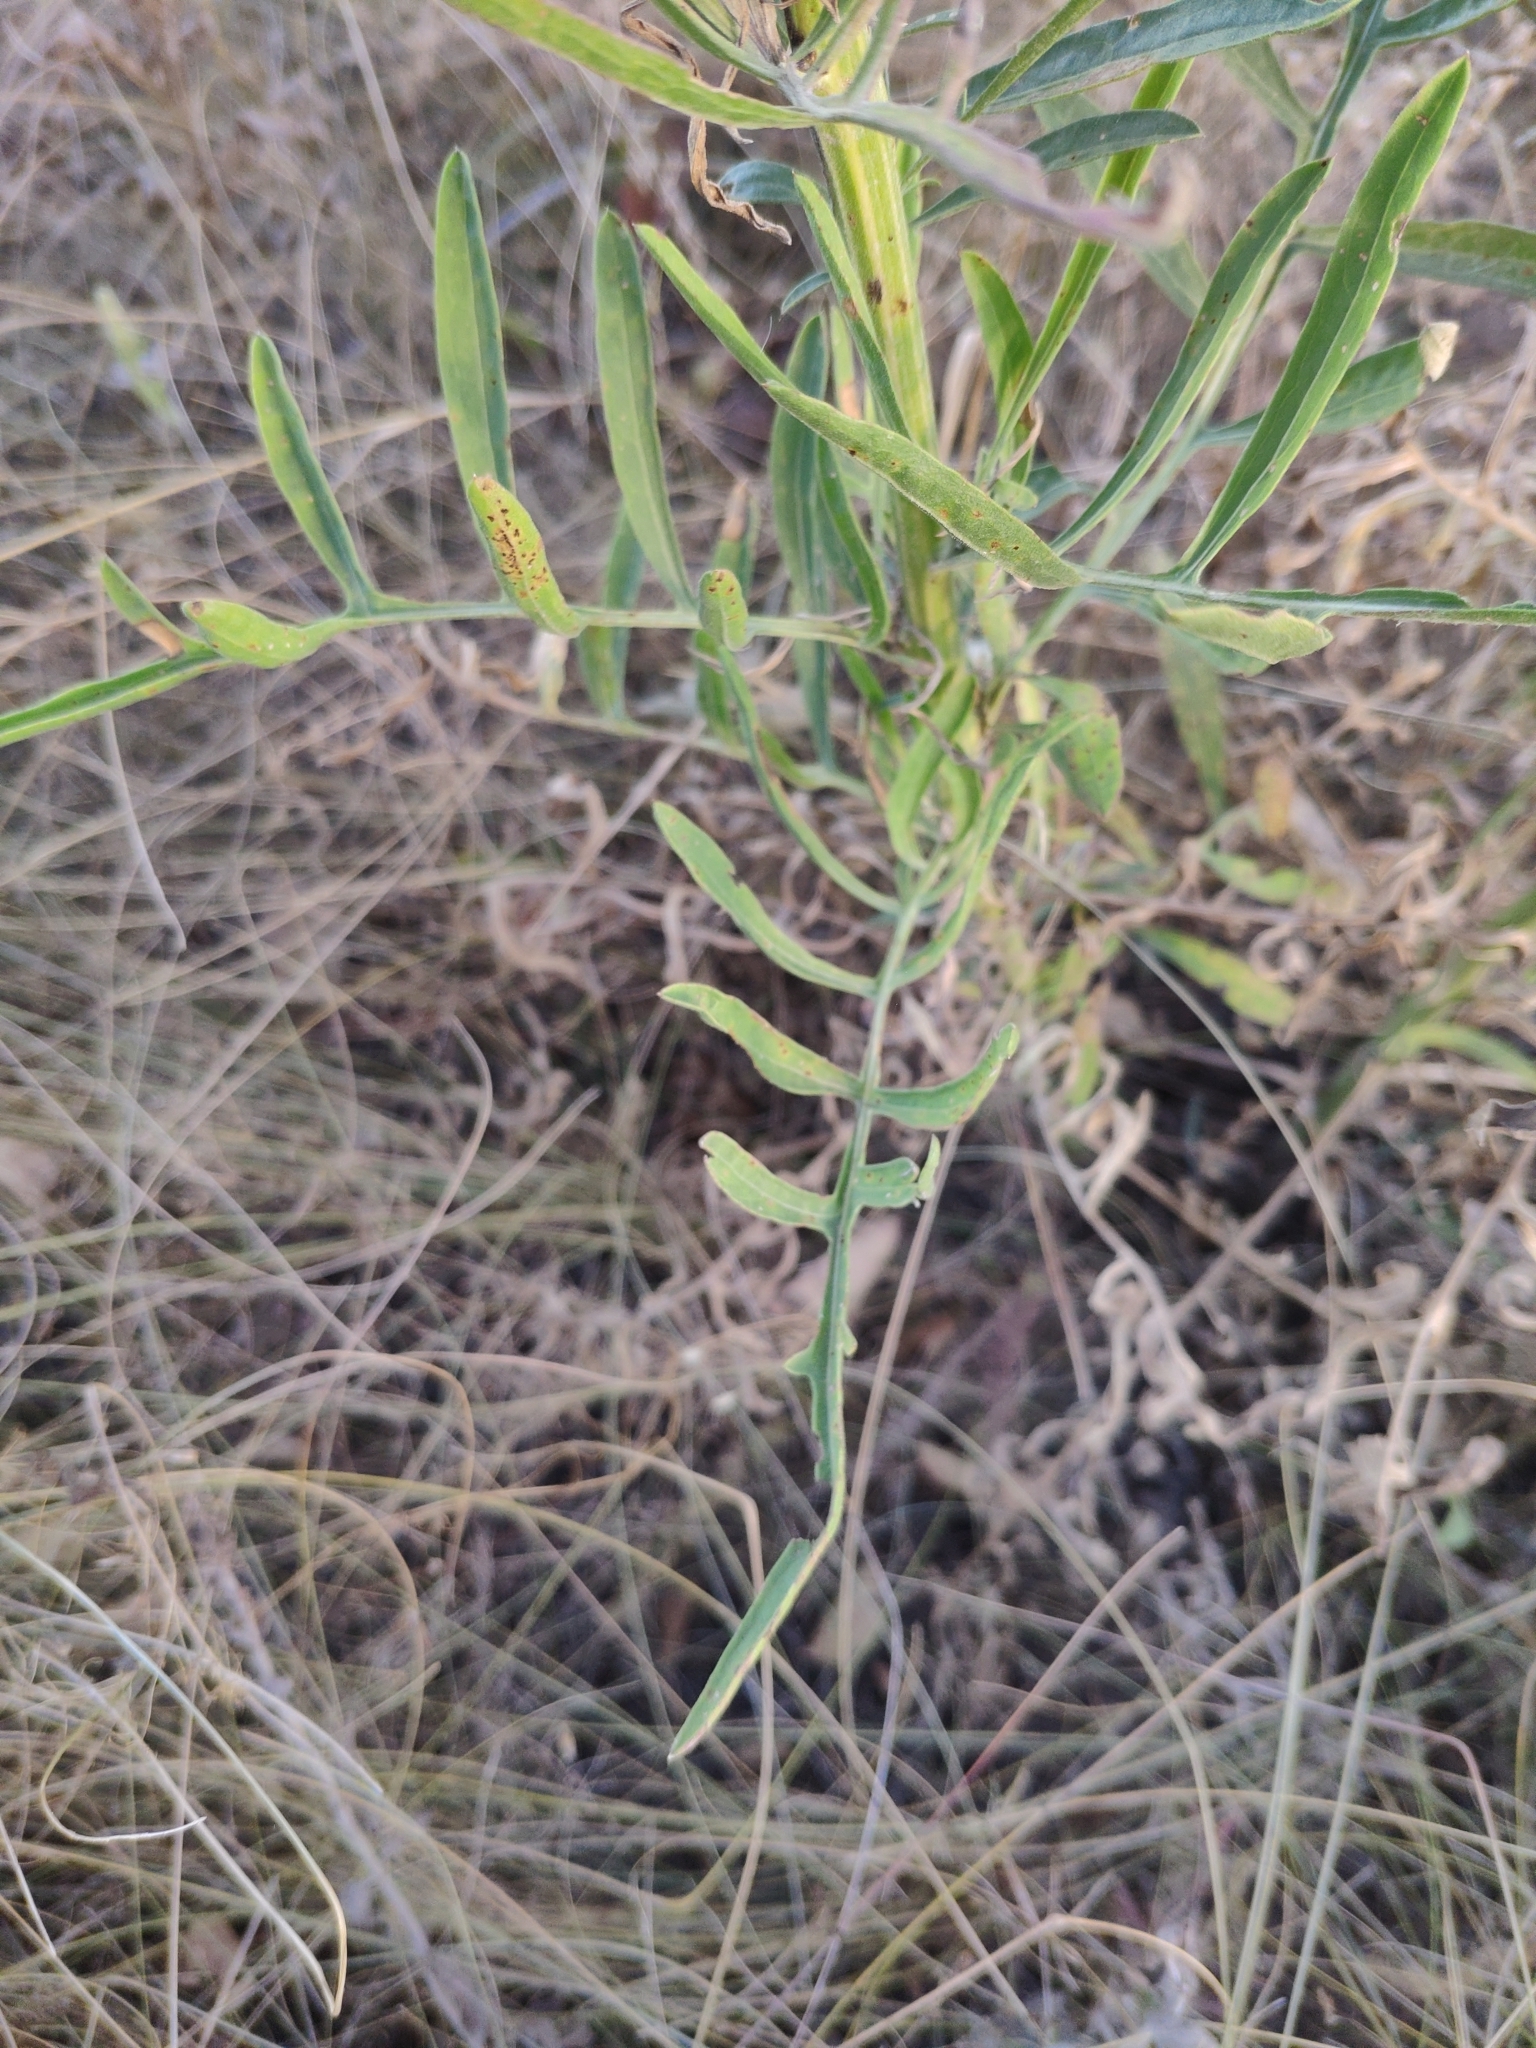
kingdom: Plantae
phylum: Tracheophyta
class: Magnoliopsida
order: Asterales
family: Asteraceae
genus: Centaurea
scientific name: Centaurea adpressa
